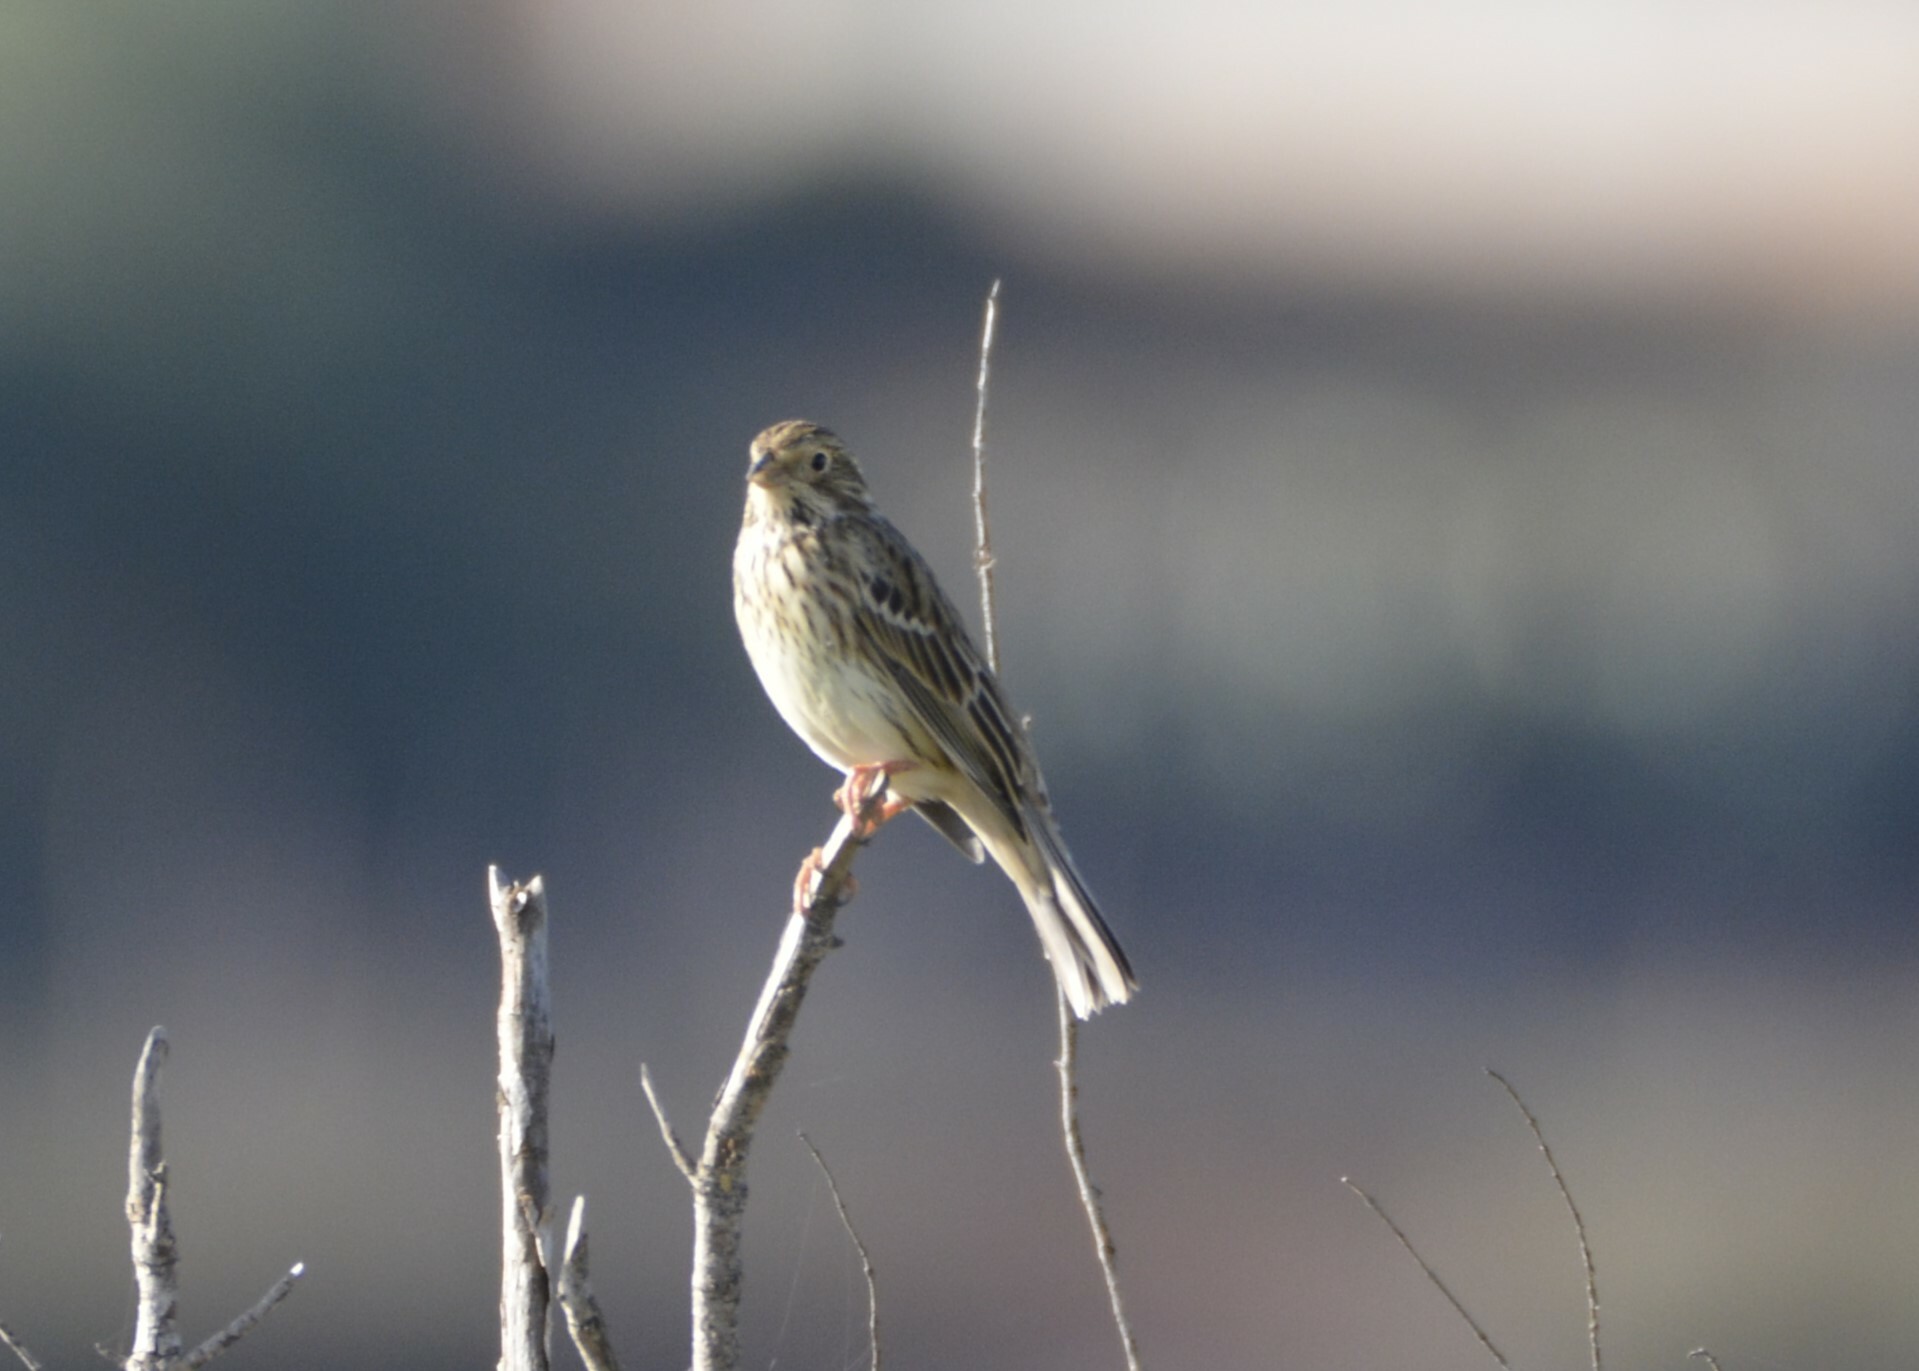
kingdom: Animalia
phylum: Chordata
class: Aves
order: Passeriformes
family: Emberizidae
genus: Emberiza
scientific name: Emberiza calandra
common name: Corn bunting
